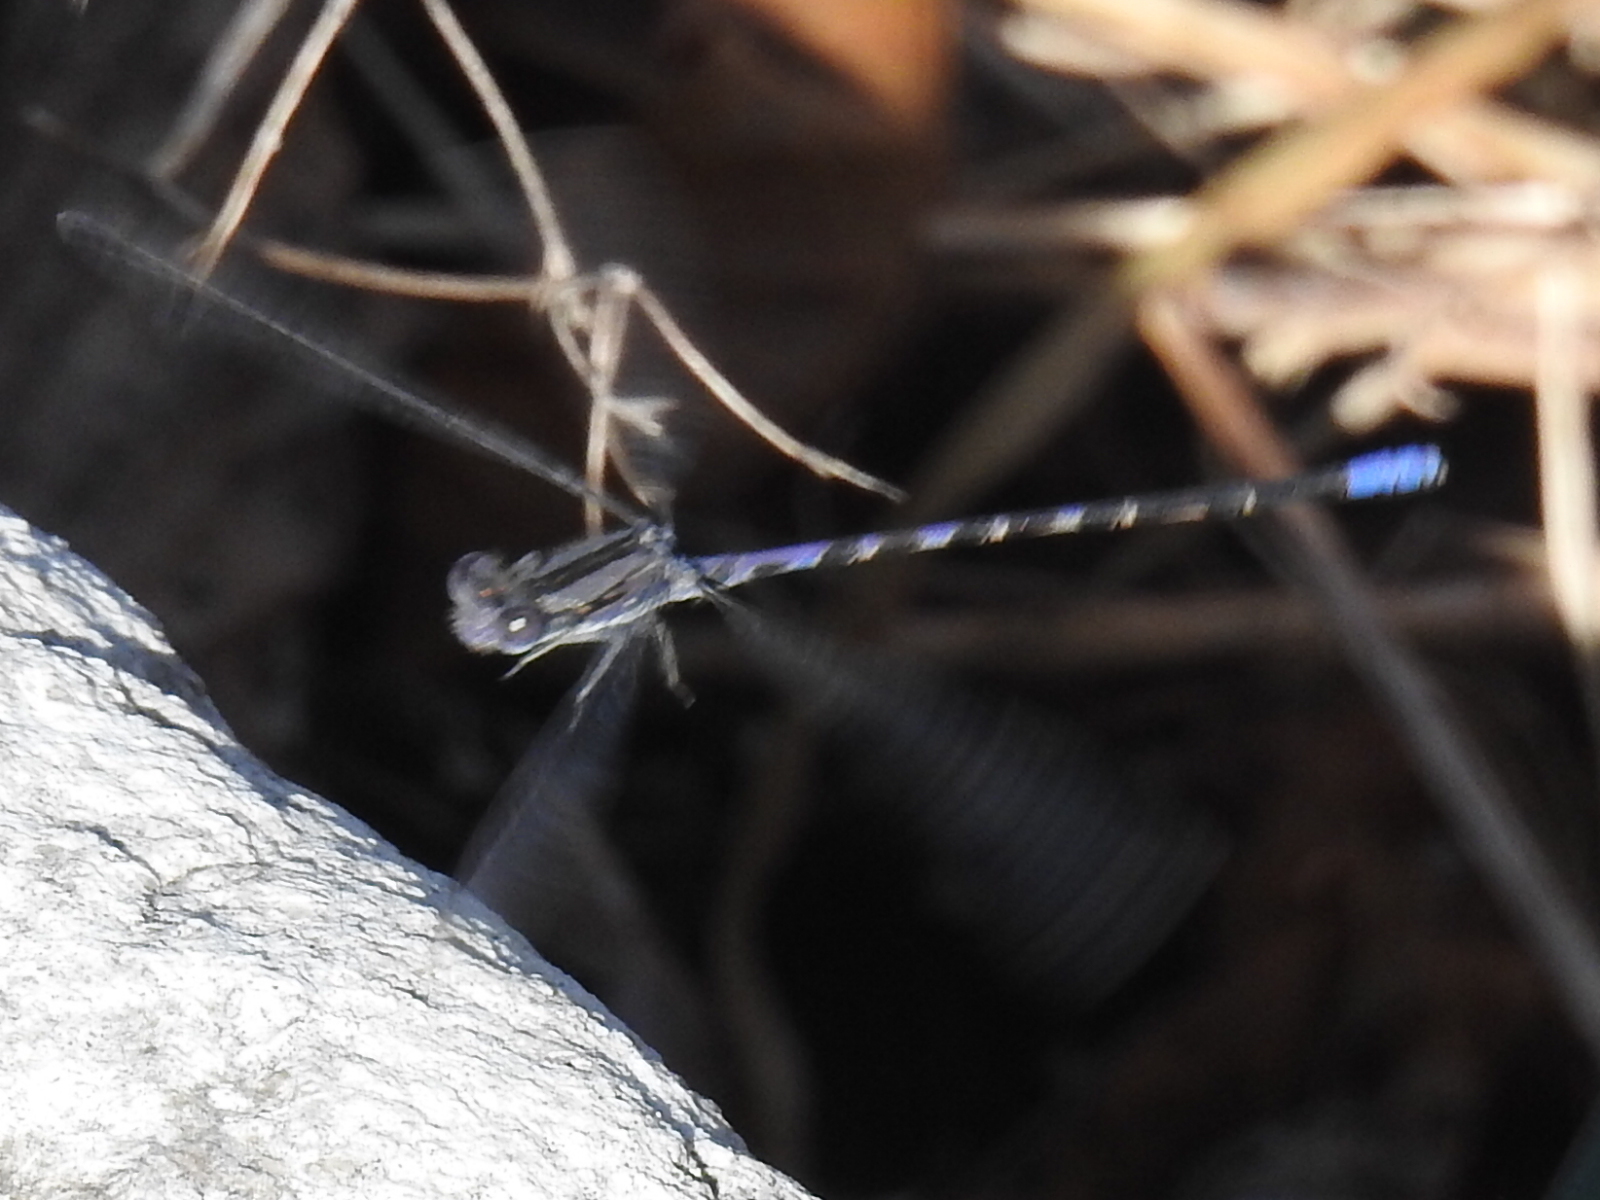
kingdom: Animalia
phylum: Arthropoda
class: Insecta
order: Odonata
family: Coenagrionidae
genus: Argia
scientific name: Argia immunda
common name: Kiowa dancer
